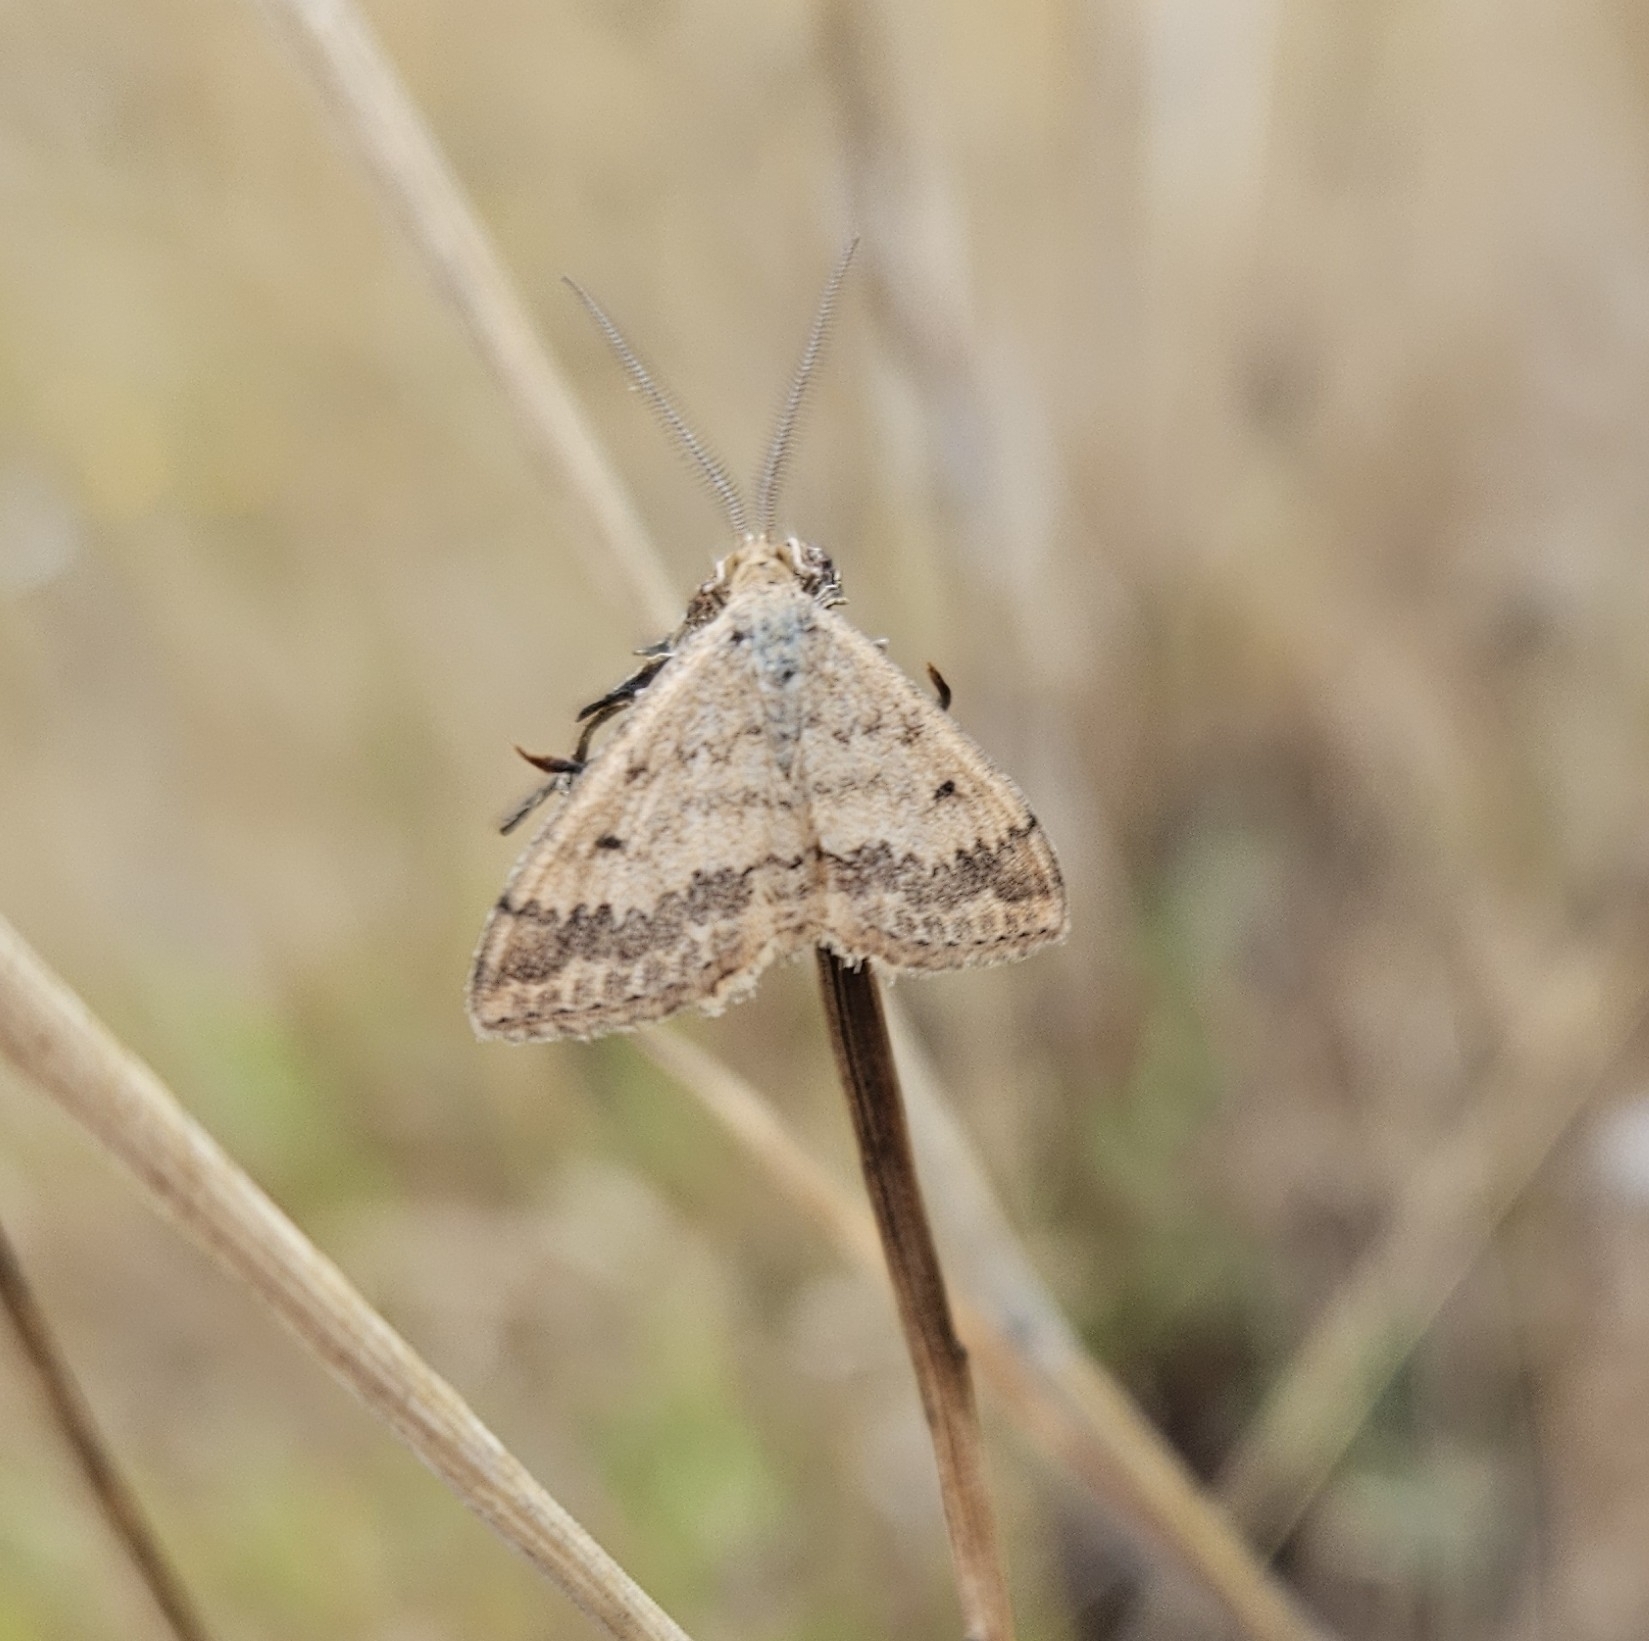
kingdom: Animalia
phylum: Arthropoda
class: Insecta
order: Lepidoptera
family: Geometridae
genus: Scopula
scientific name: Scopula rubraria
